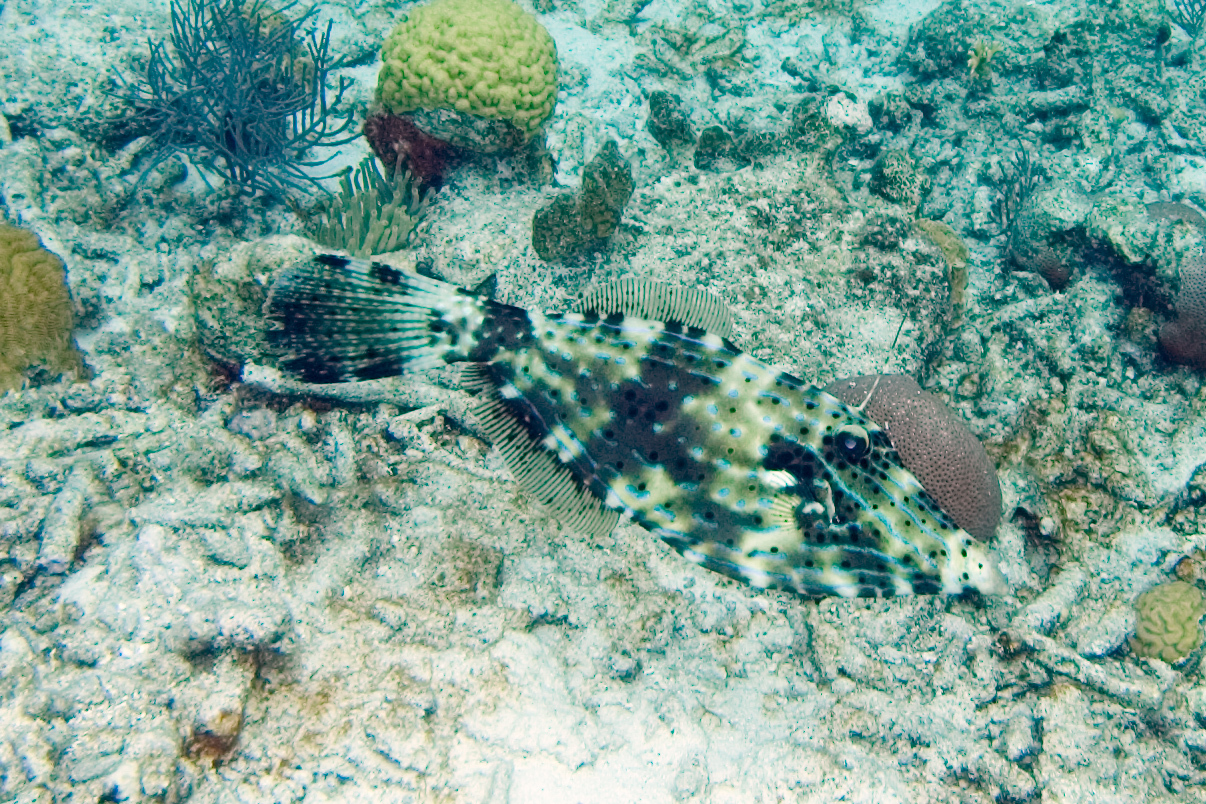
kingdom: Animalia
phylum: Chordata
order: Tetraodontiformes
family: Monacanthidae
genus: Aluterus
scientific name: Aluterus scriptus
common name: Scribbled leatherjacket filefish
